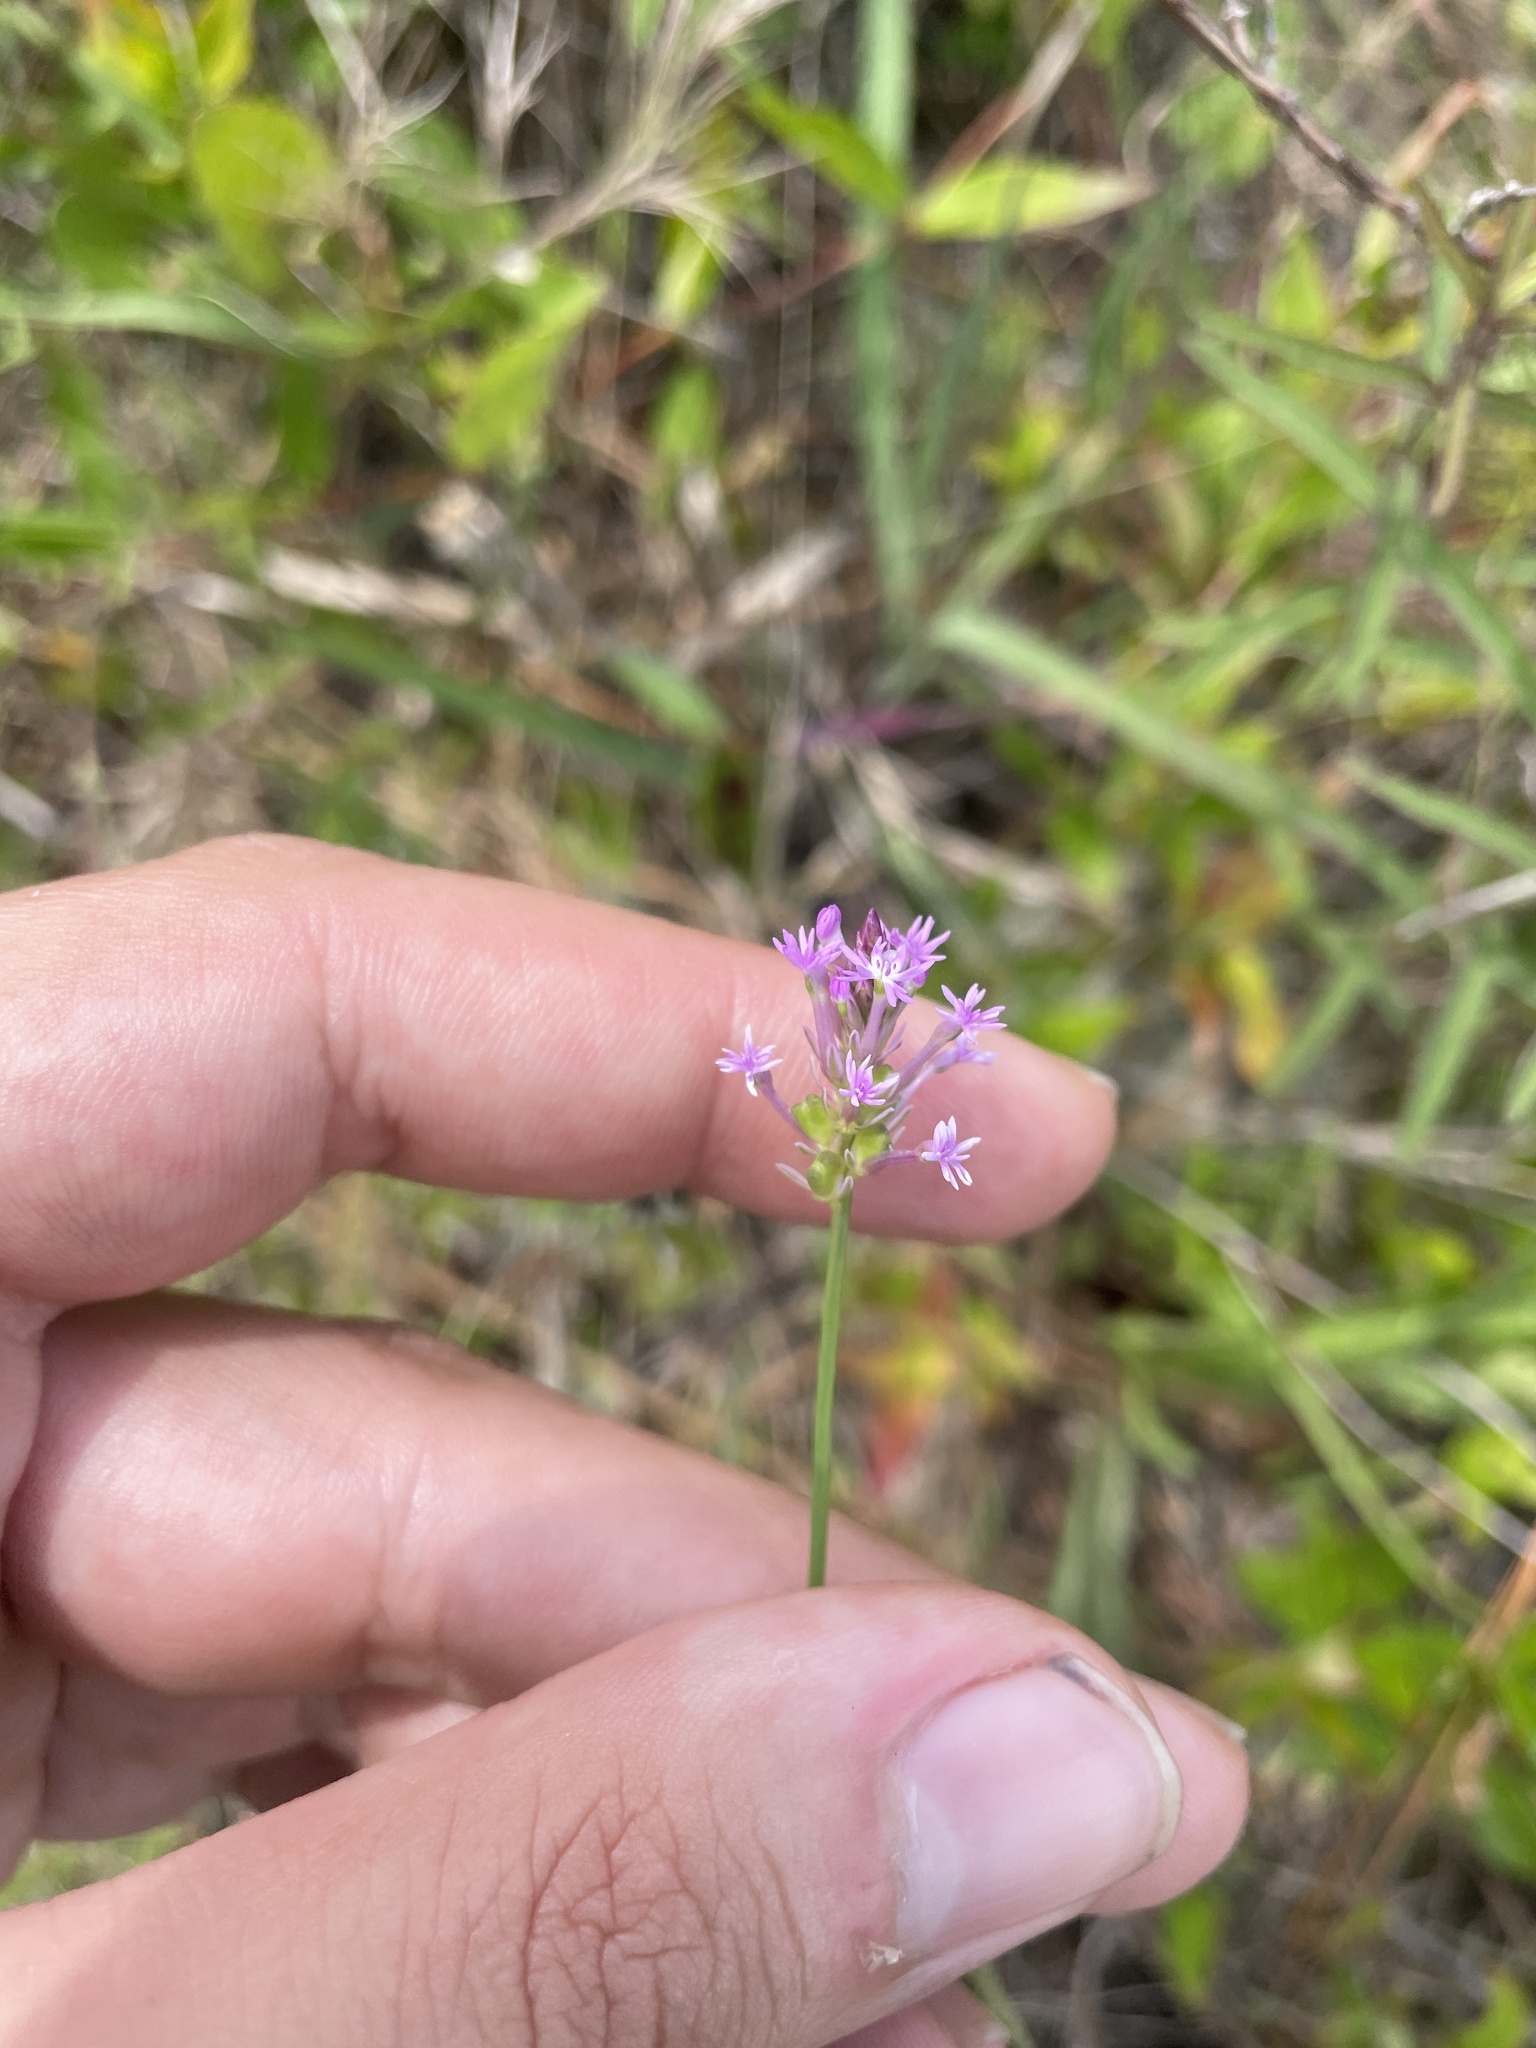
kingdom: Plantae
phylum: Tracheophyta
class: Magnoliopsida
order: Fabales
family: Polygalaceae
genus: Polygala
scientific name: Polygala incarnata
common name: Pink milkwort
